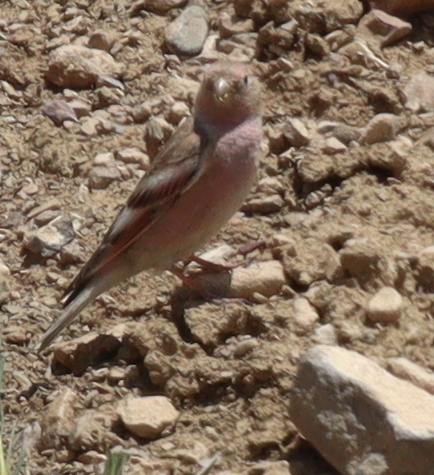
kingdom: Animalia
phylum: Chordata
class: Aves
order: Passeriformes
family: Fringillidae
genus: Bucanetes
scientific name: Bucanetes mongolicus
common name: Mongolian finch
